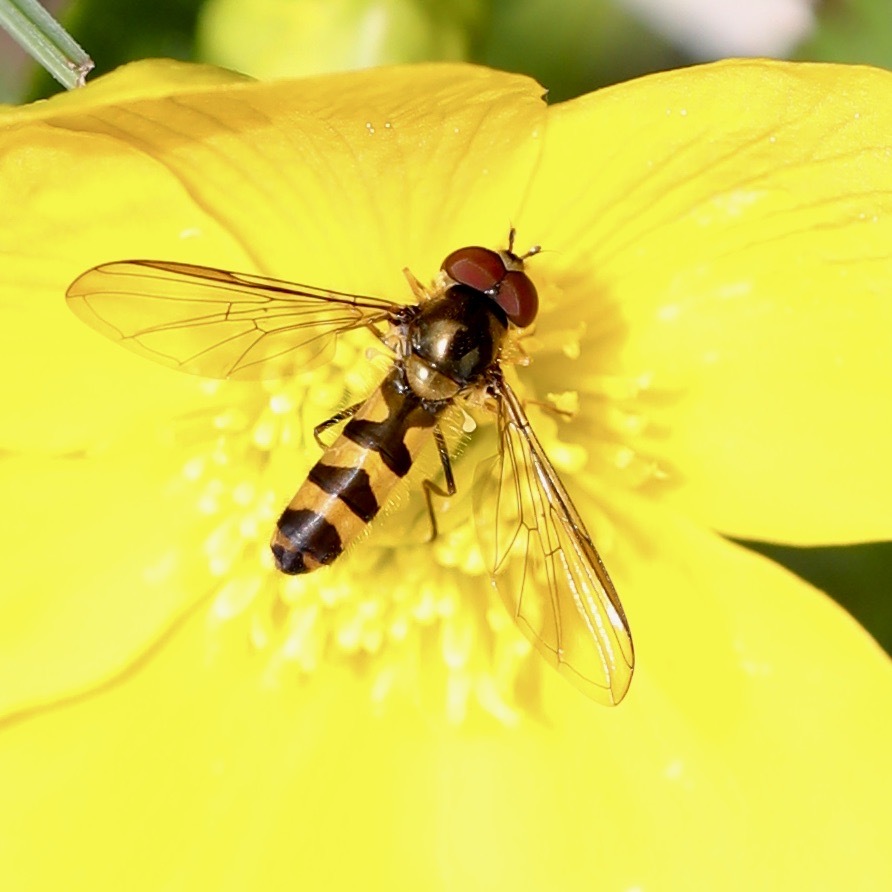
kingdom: Animalia
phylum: Arthropoda
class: Insecta
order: Diptera
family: Syrphidae
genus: Meliscaeva
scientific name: Meliscaeva cinctella
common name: American thintail fly
